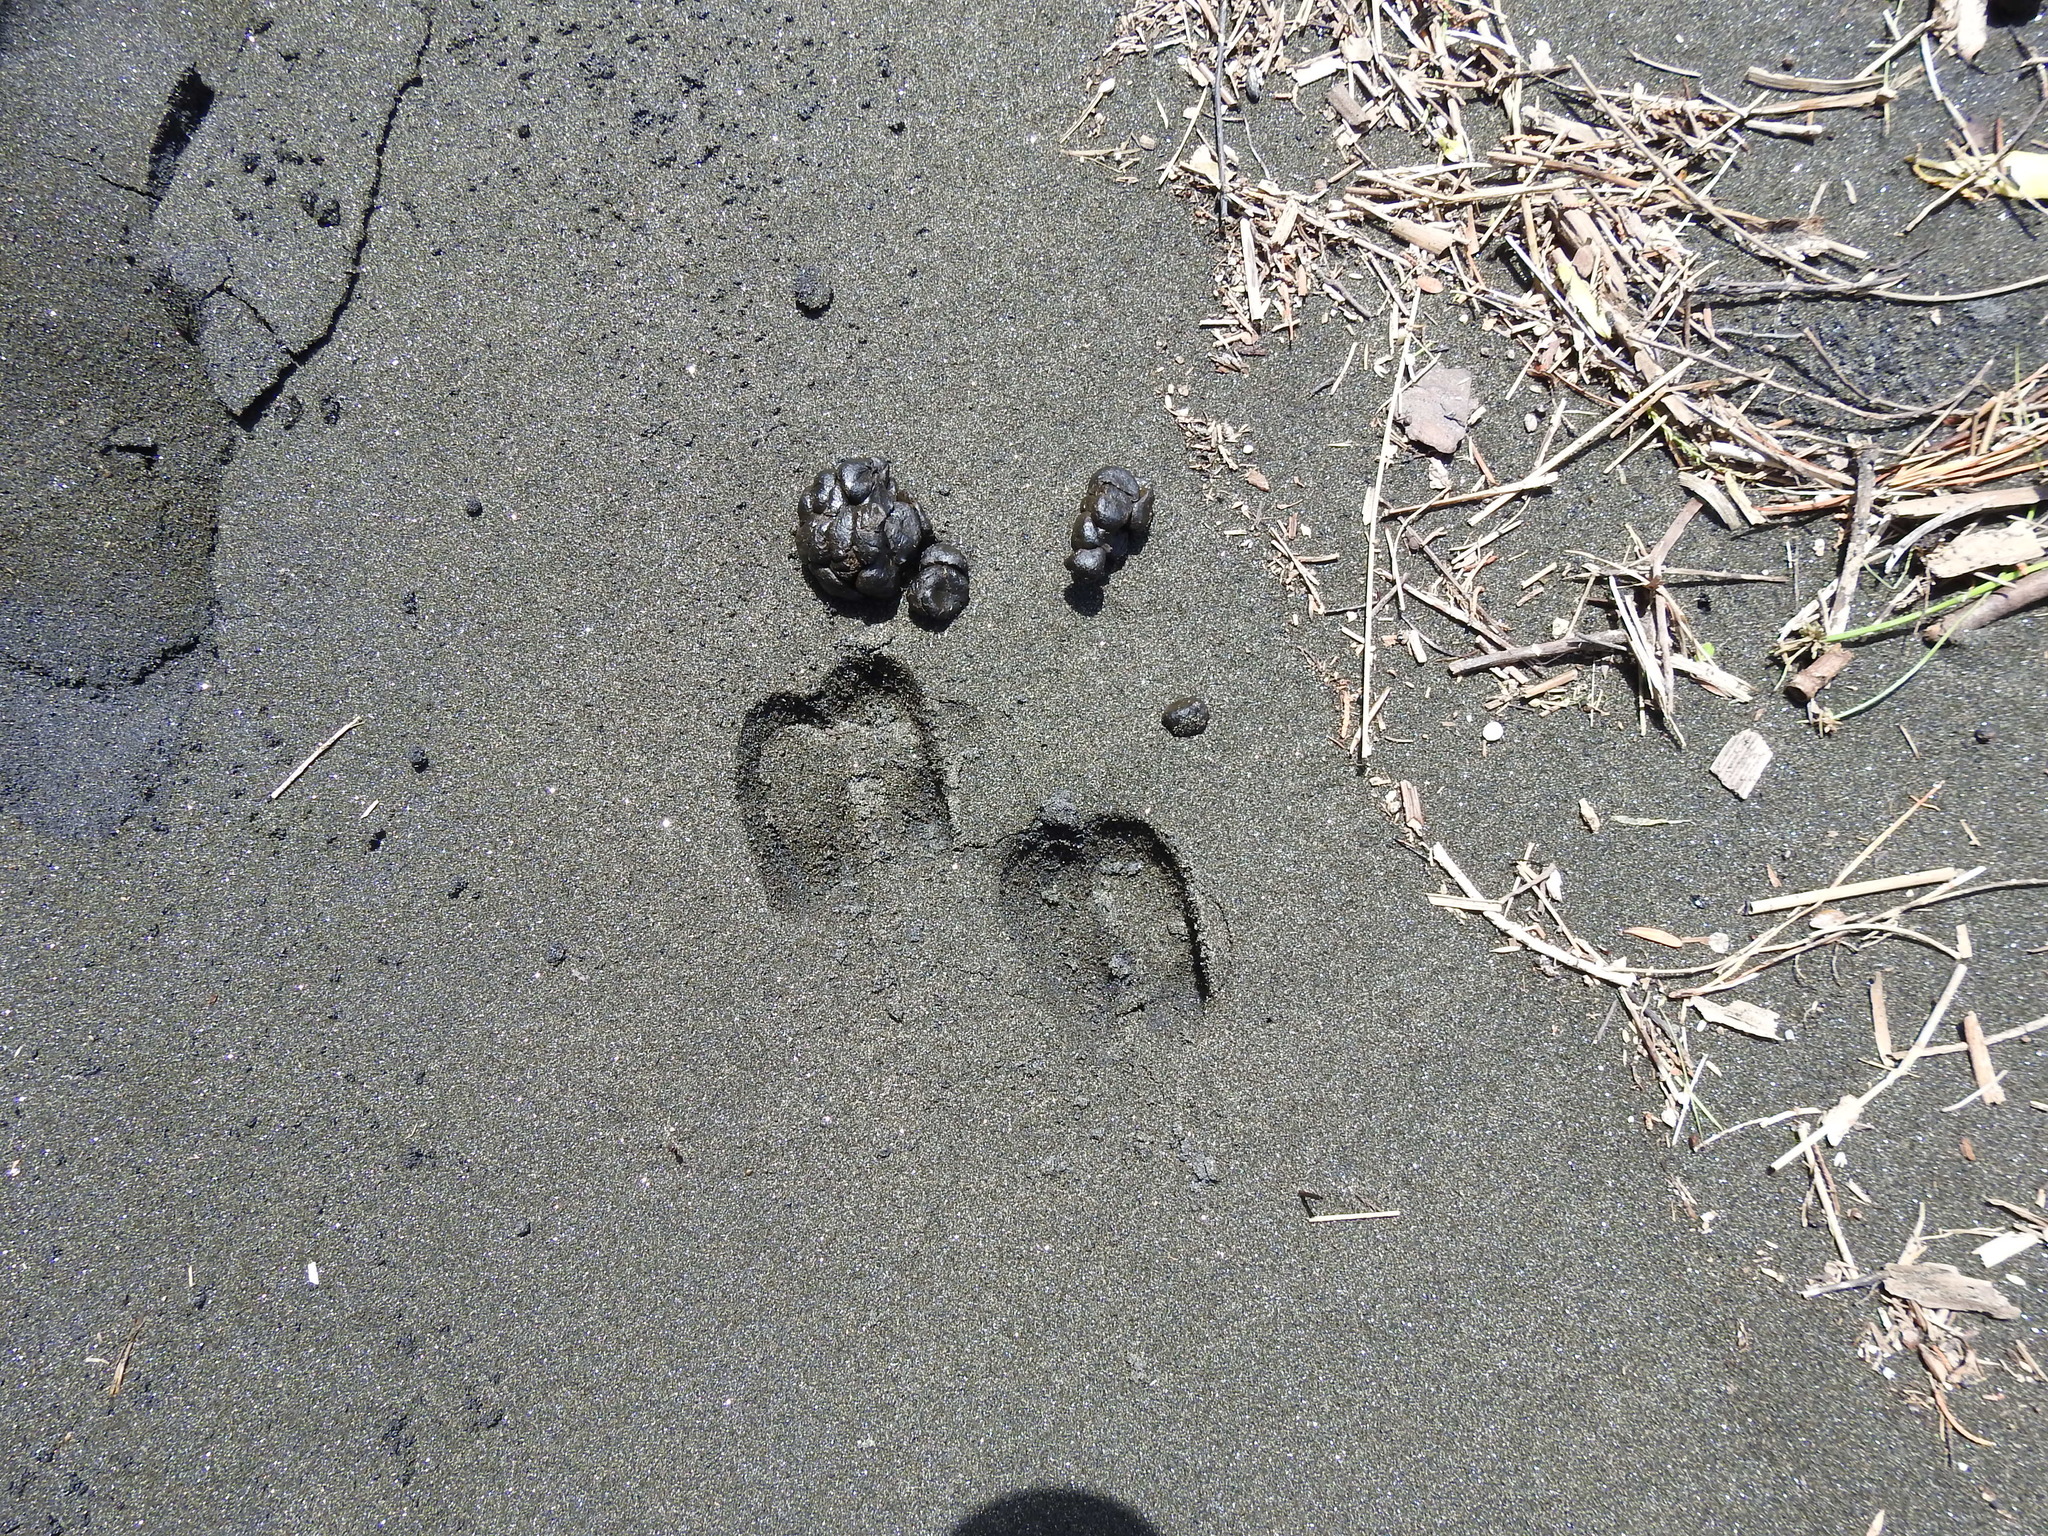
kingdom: Animalia
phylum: Chordata
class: Mammalia
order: Artiodactyla
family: Bovidae
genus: Capra
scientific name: Capra hircus
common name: Domestic goat
